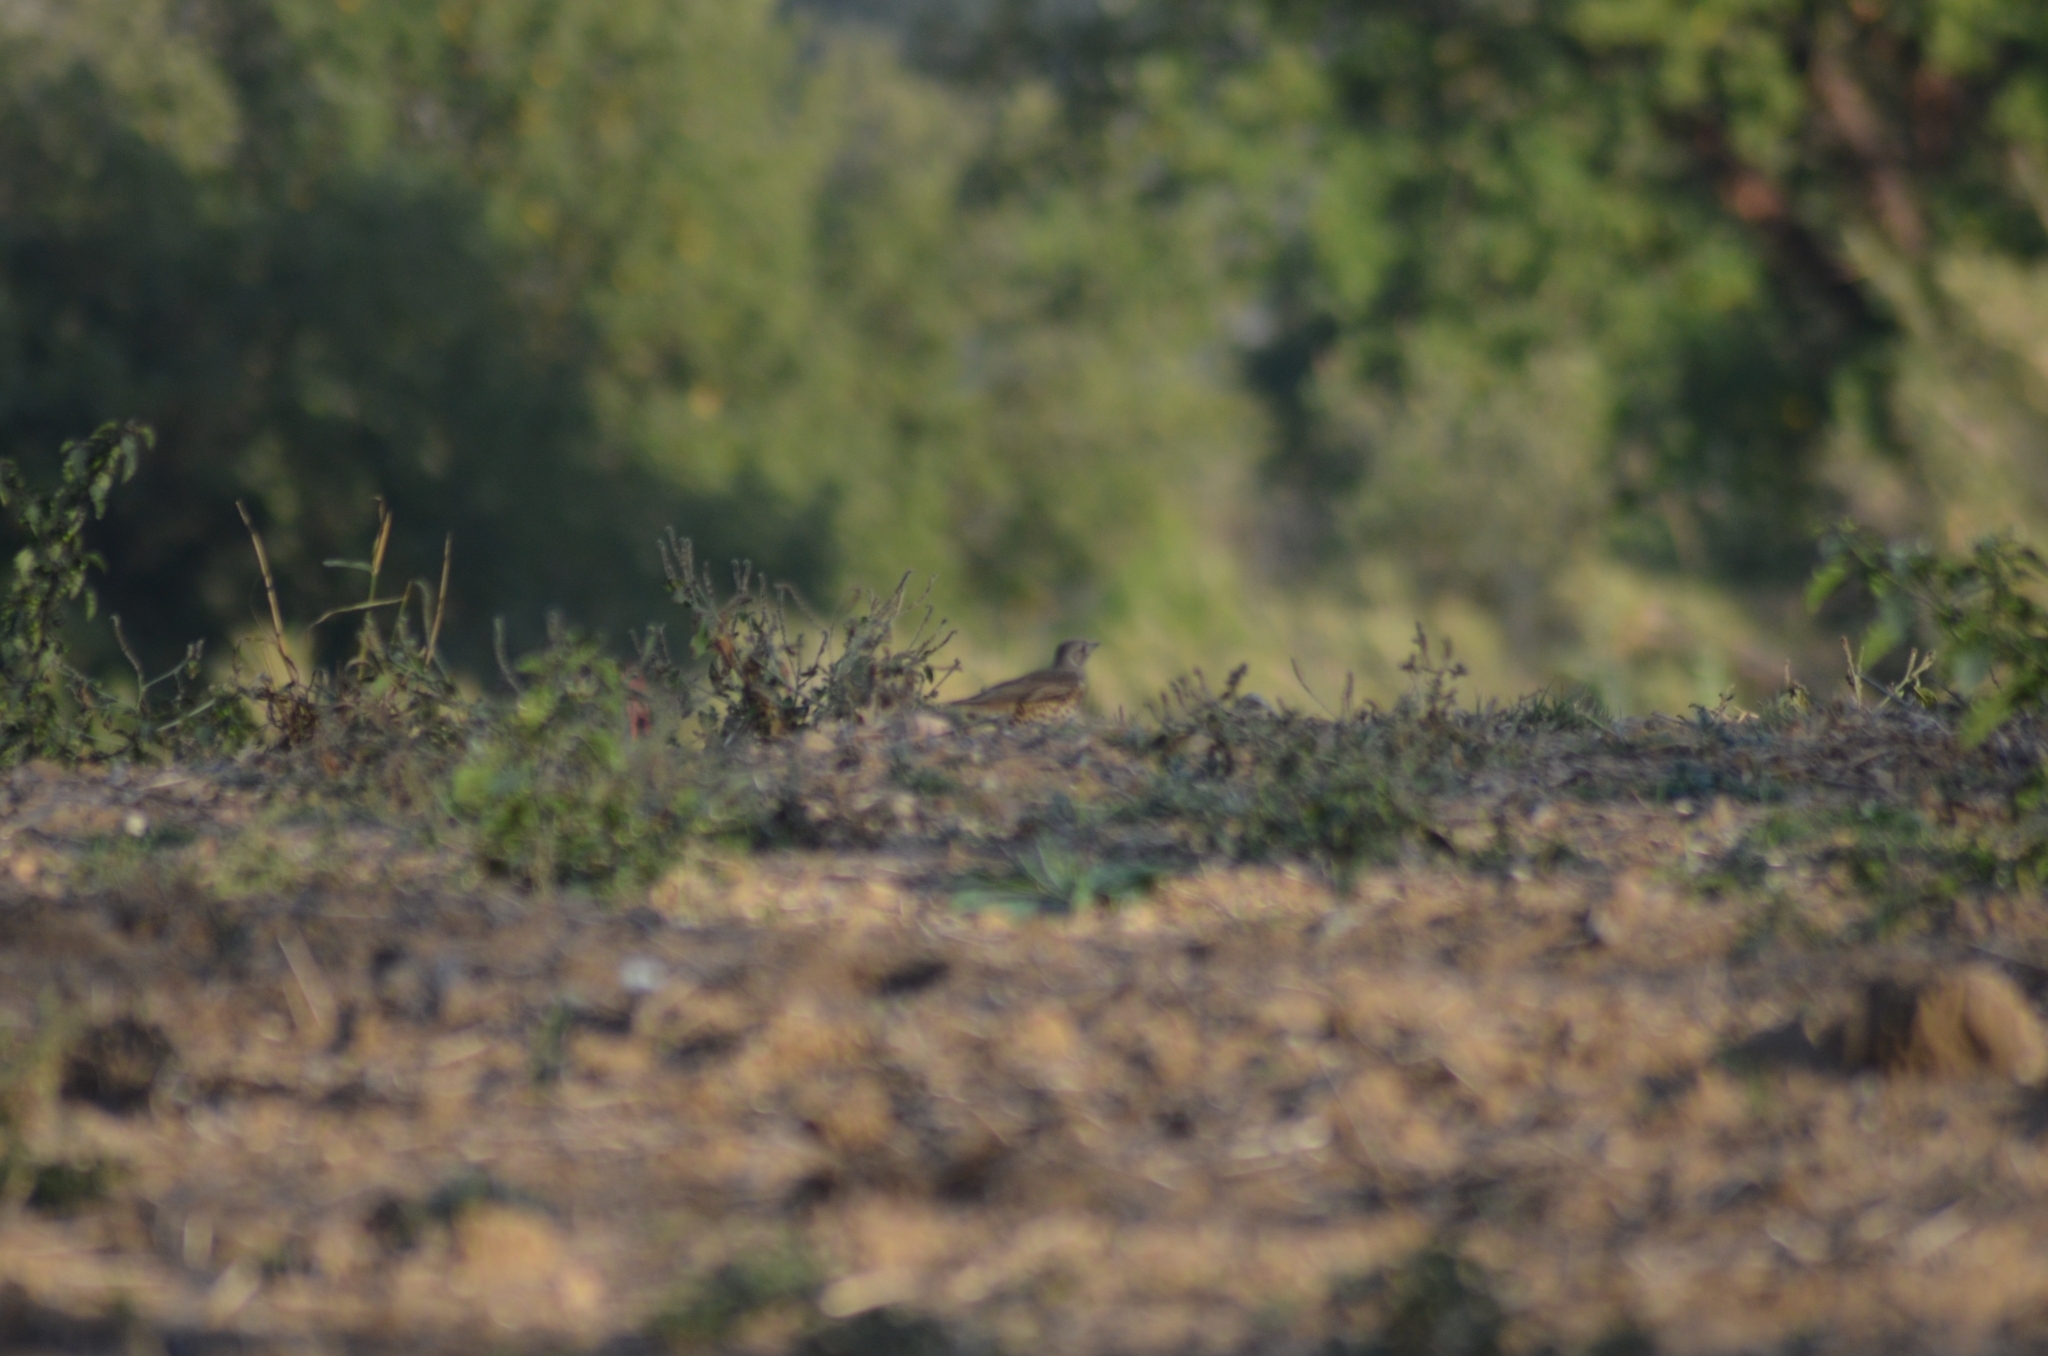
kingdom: Animalia
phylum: Chordata
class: Aves
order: Passeriformes
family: Turdidae
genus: Turdus
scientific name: Turdus viscivorus
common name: Mistle thrush
